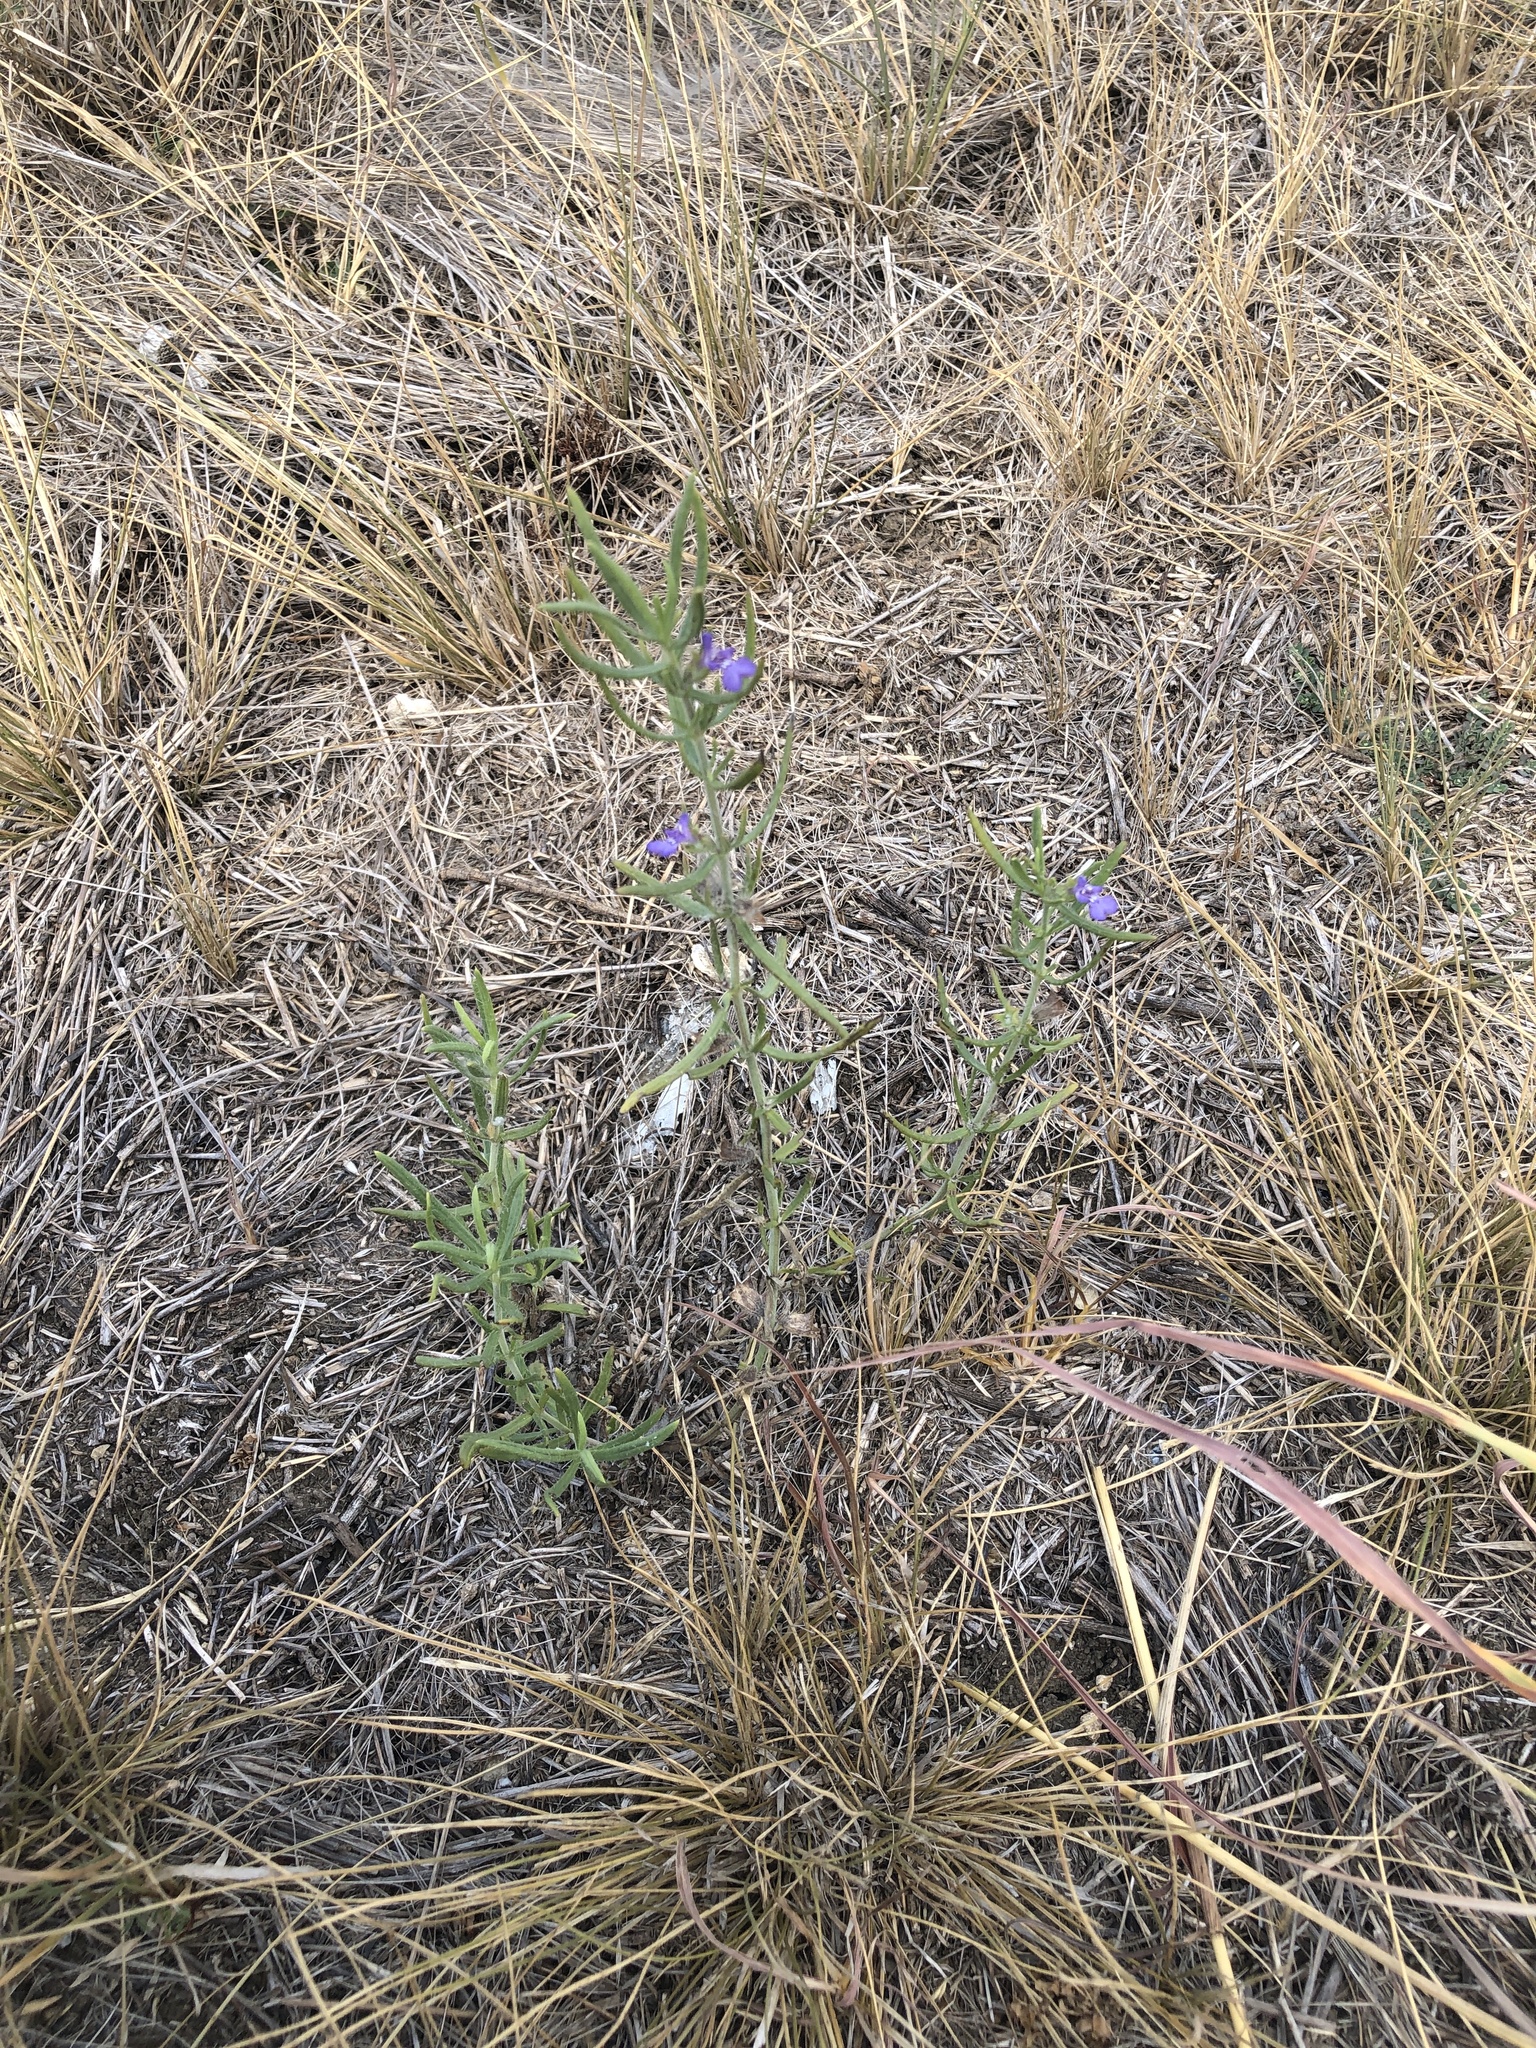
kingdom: Plantae
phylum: Tracheophyta
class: Magnoliopsida
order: Lamiales
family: Lamiaceae
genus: Salvia
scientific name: Salvia texana
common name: Texas sage
